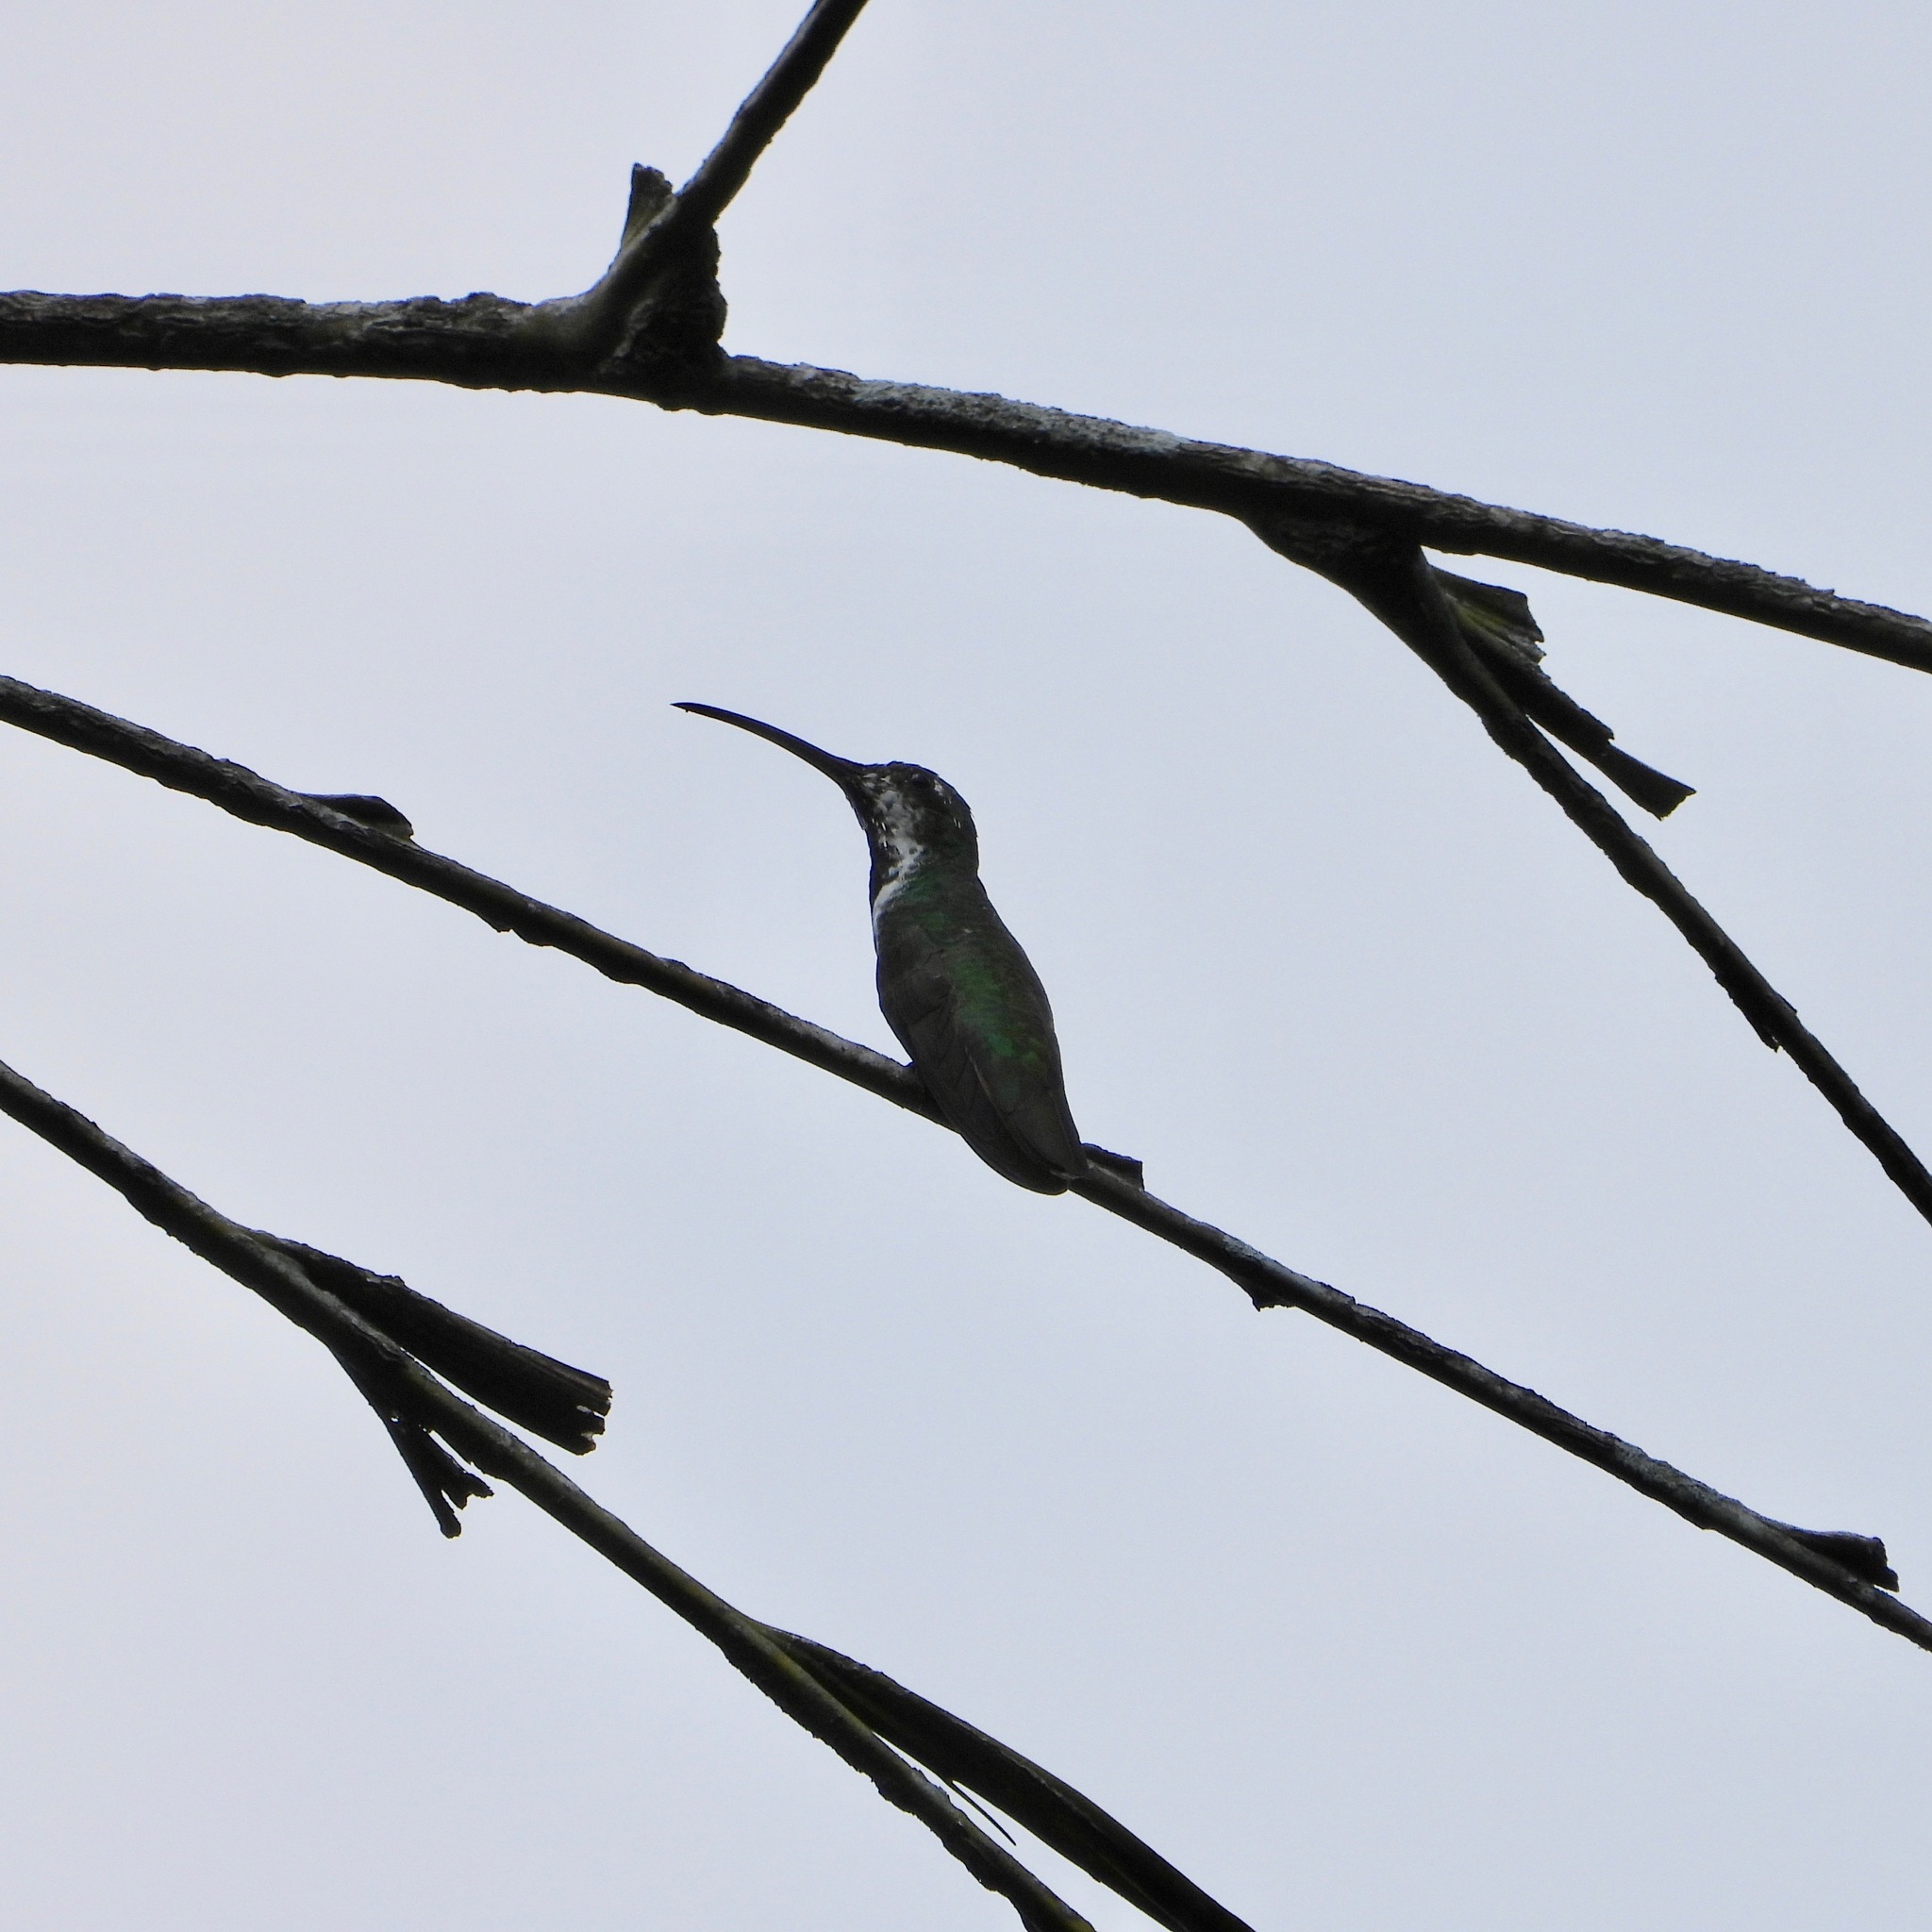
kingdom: Animalia
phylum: Chordata
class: Aves
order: Apodiformes
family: Trochilidae
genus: Anthracothorax
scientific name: Anthracothorax prevostii
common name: Green-breasted mango
